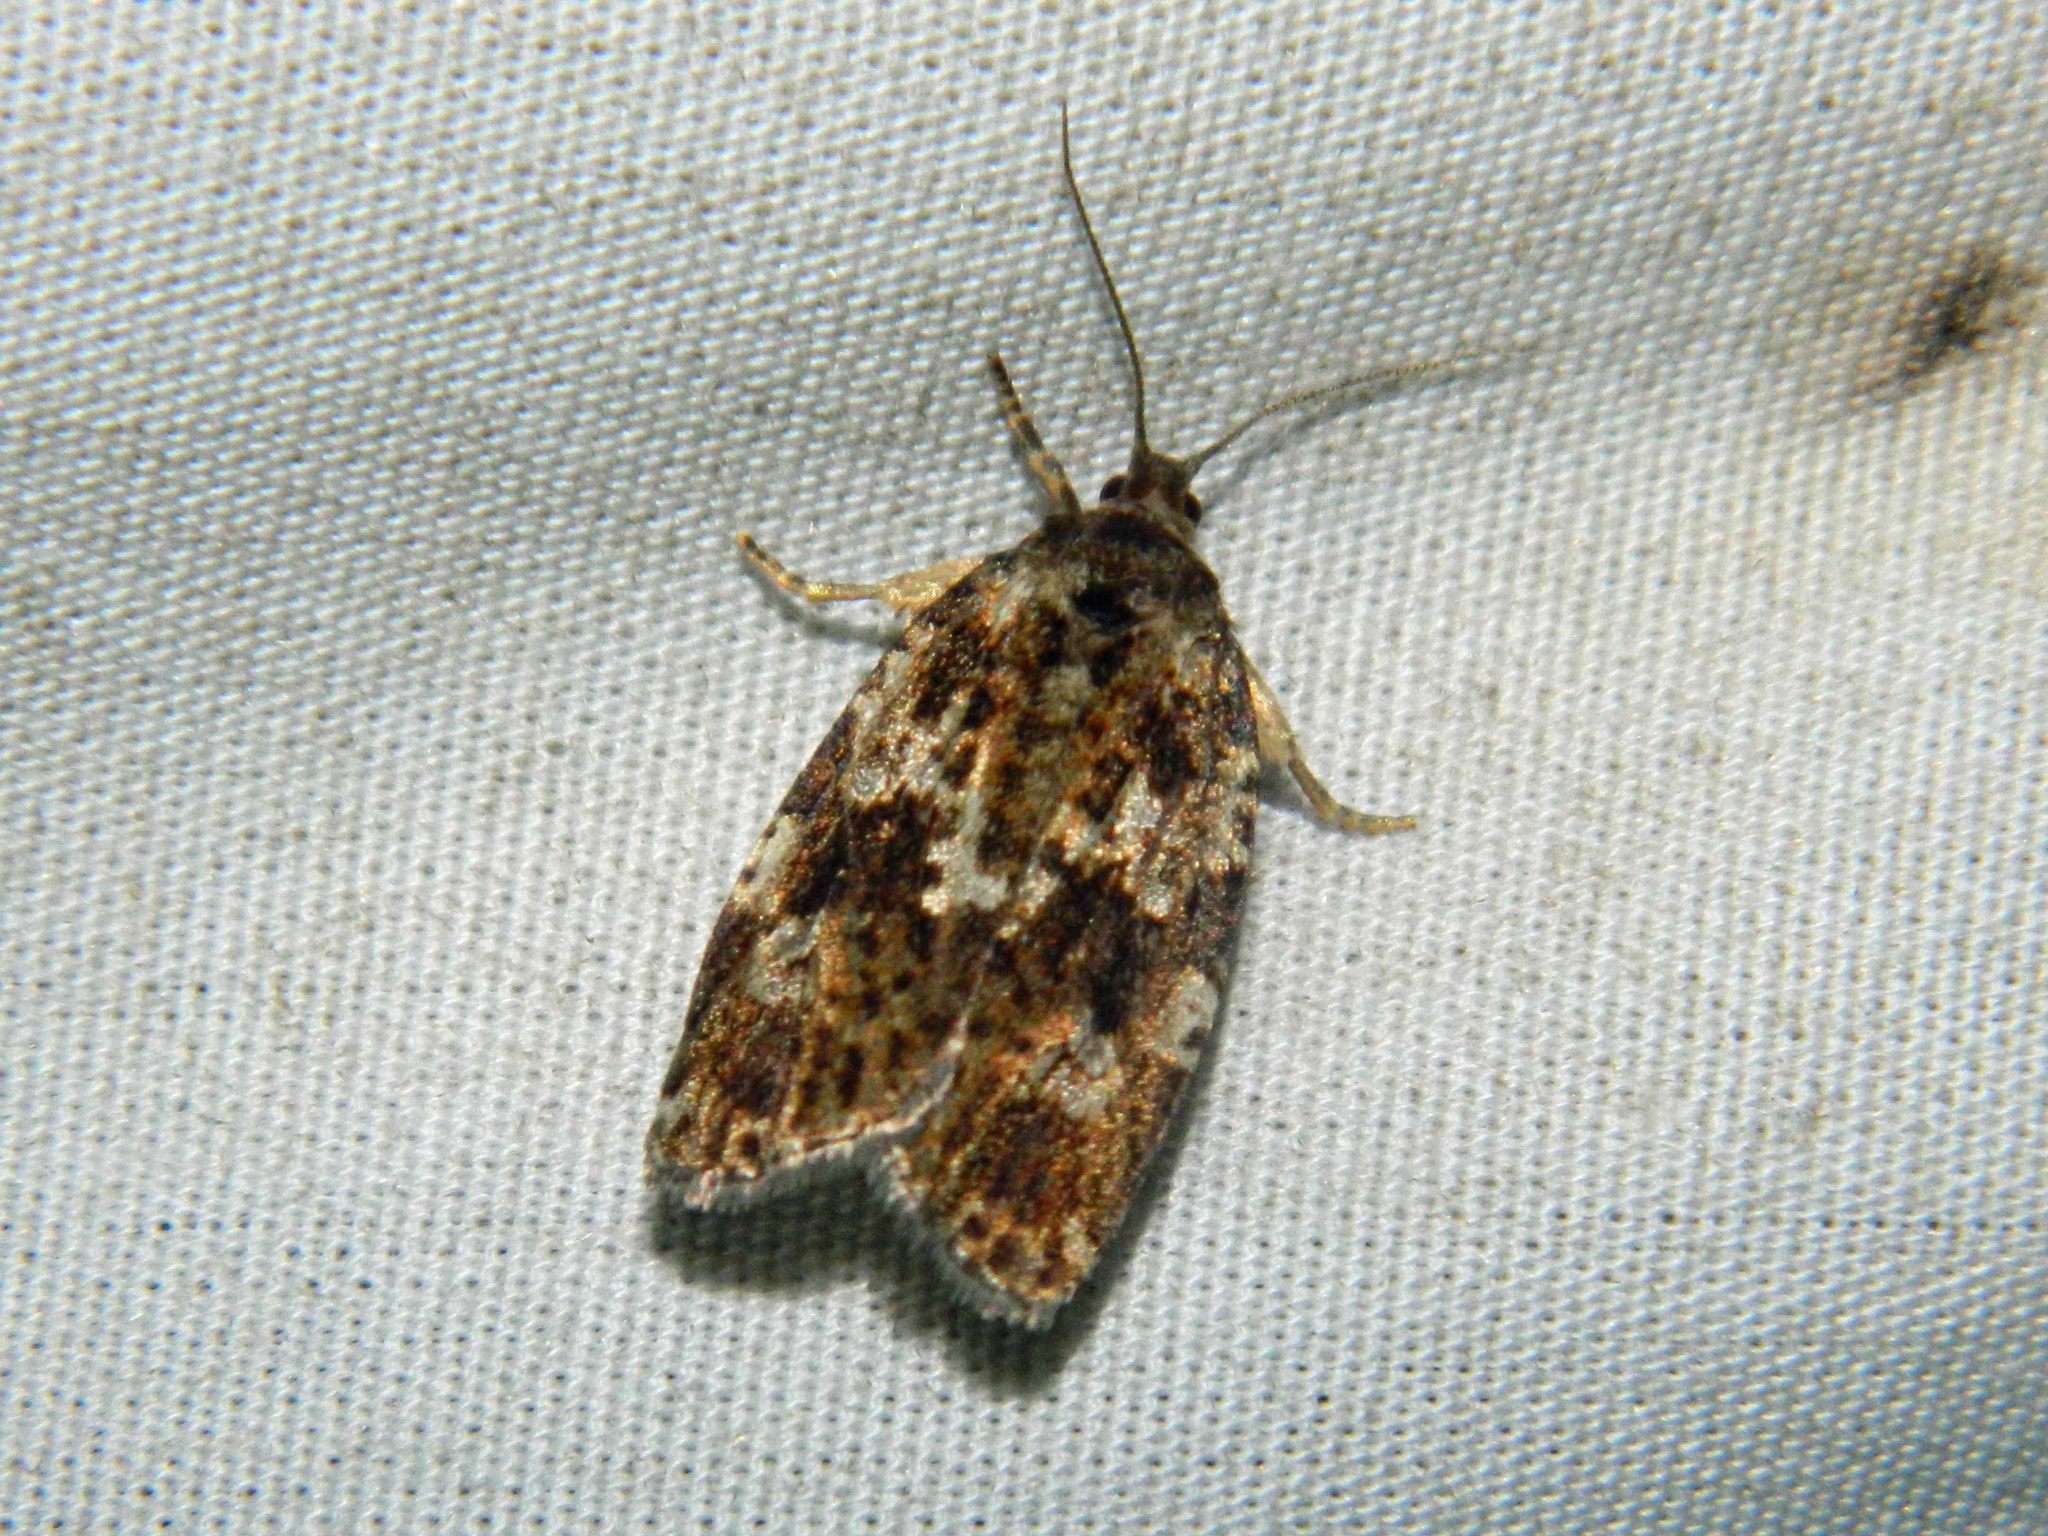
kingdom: Animalia
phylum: Arthropoda
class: Insecta
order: Lepidoptera
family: Tortricidae
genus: Choristoneura
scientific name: Choristoneura fumiferana
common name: Spruce budworm
